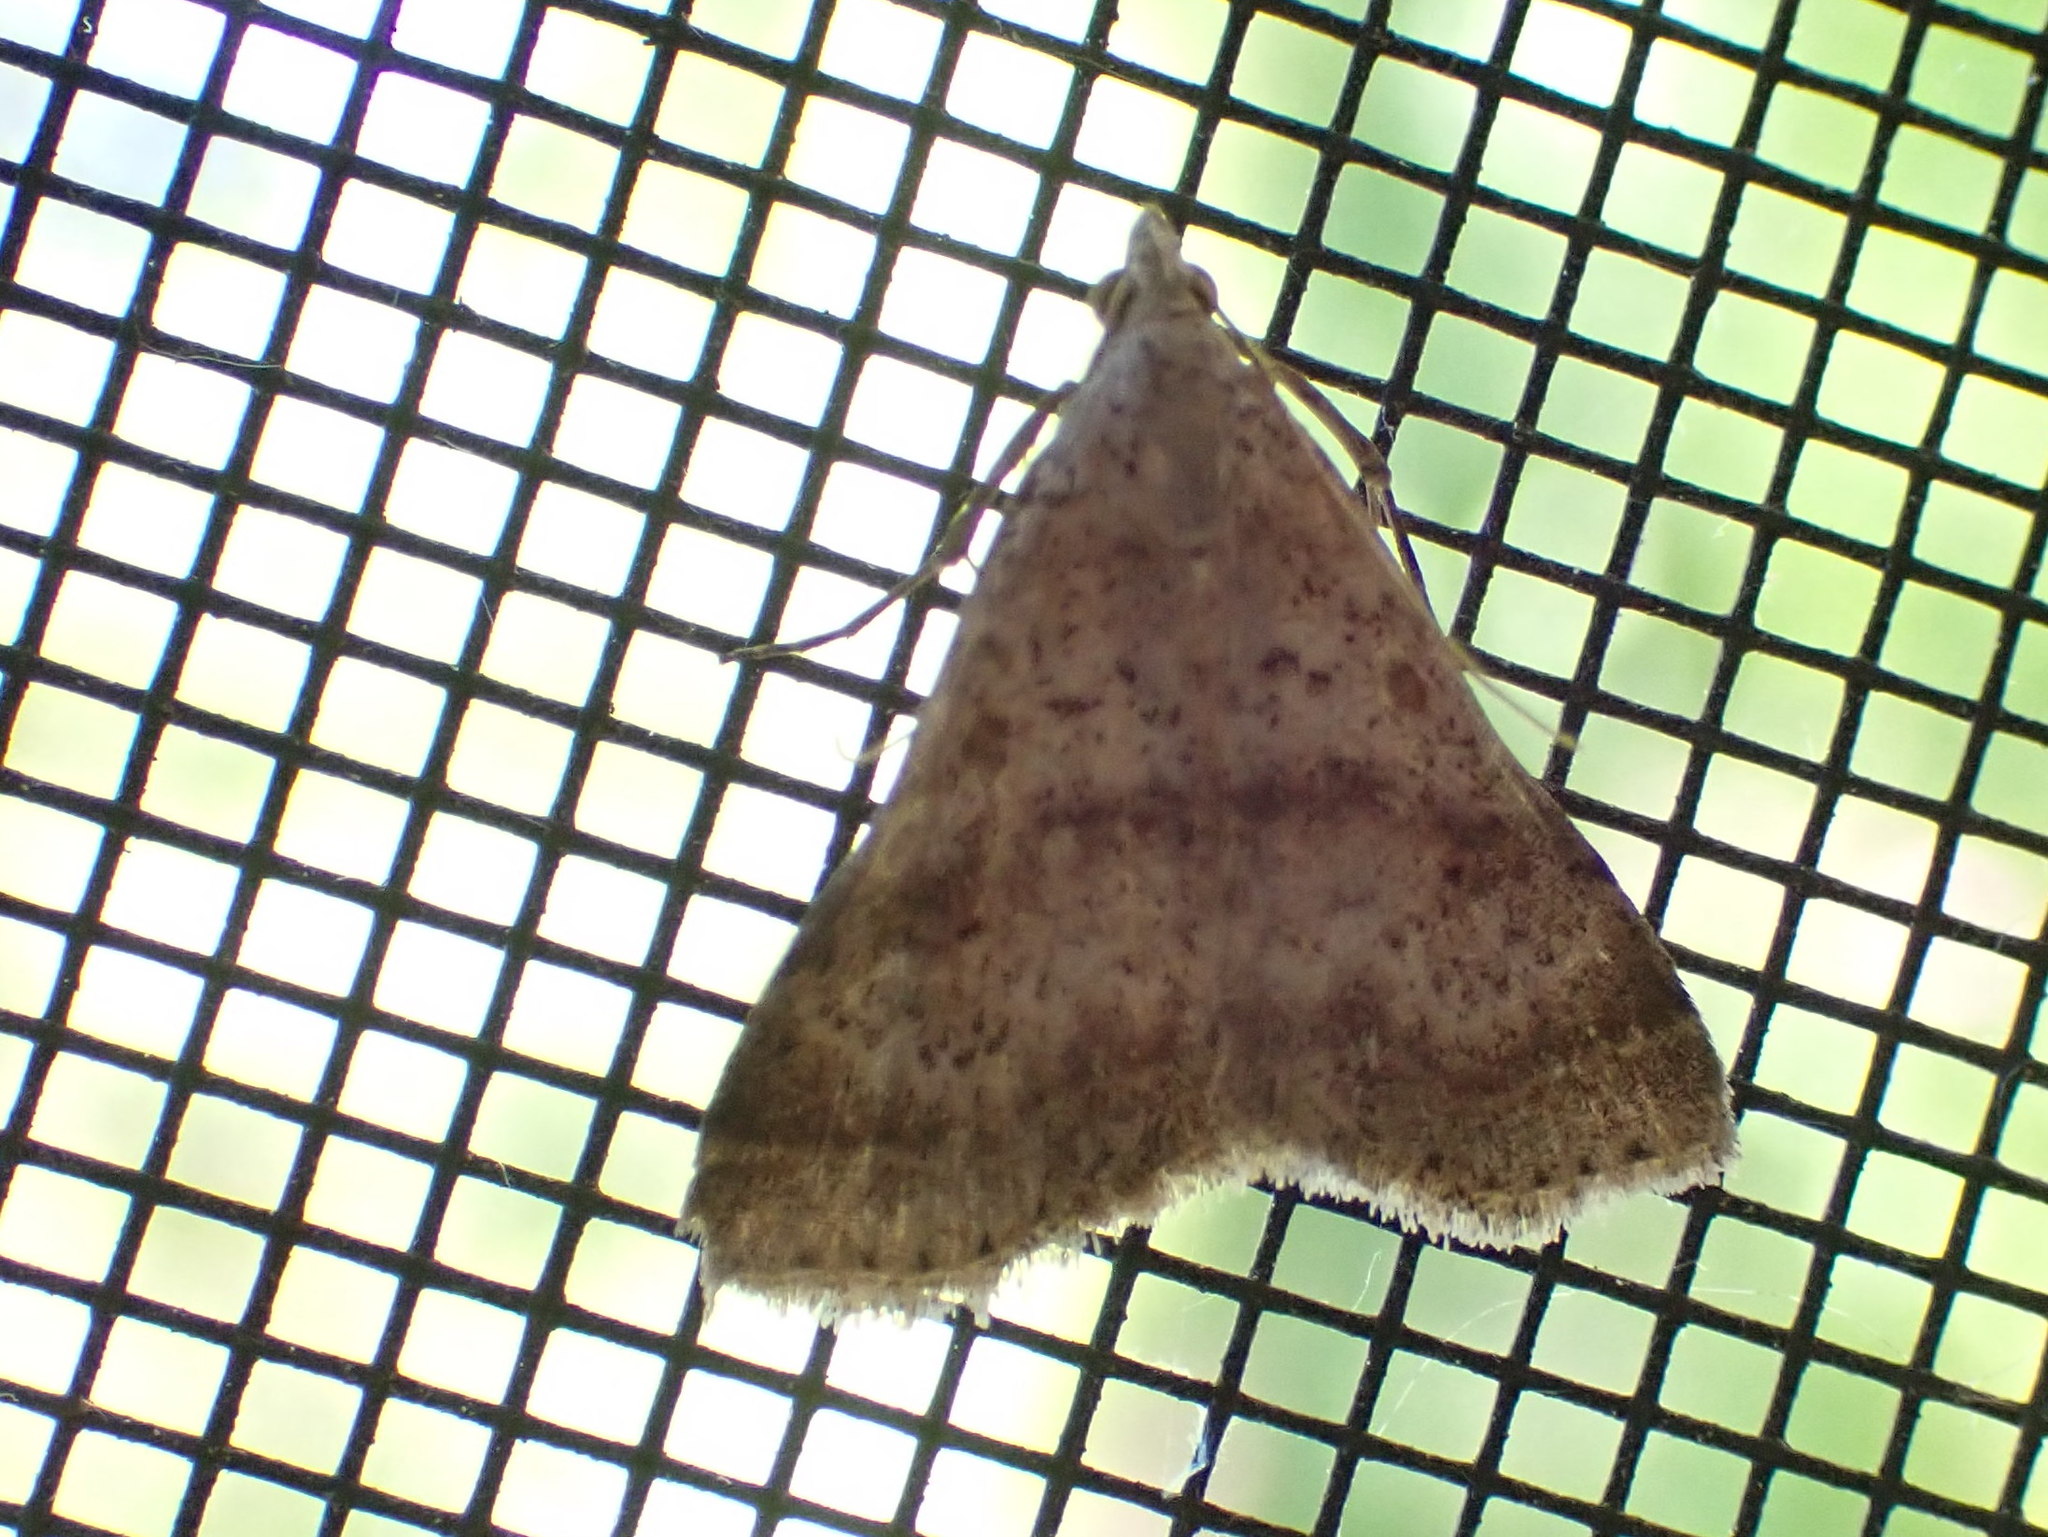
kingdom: Animalia
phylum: Arthropoda
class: Insecta
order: Lepidoptera
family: Erebidae
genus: Bleptina
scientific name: Bleptina caradrinalis
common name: Bent-winged owlet
